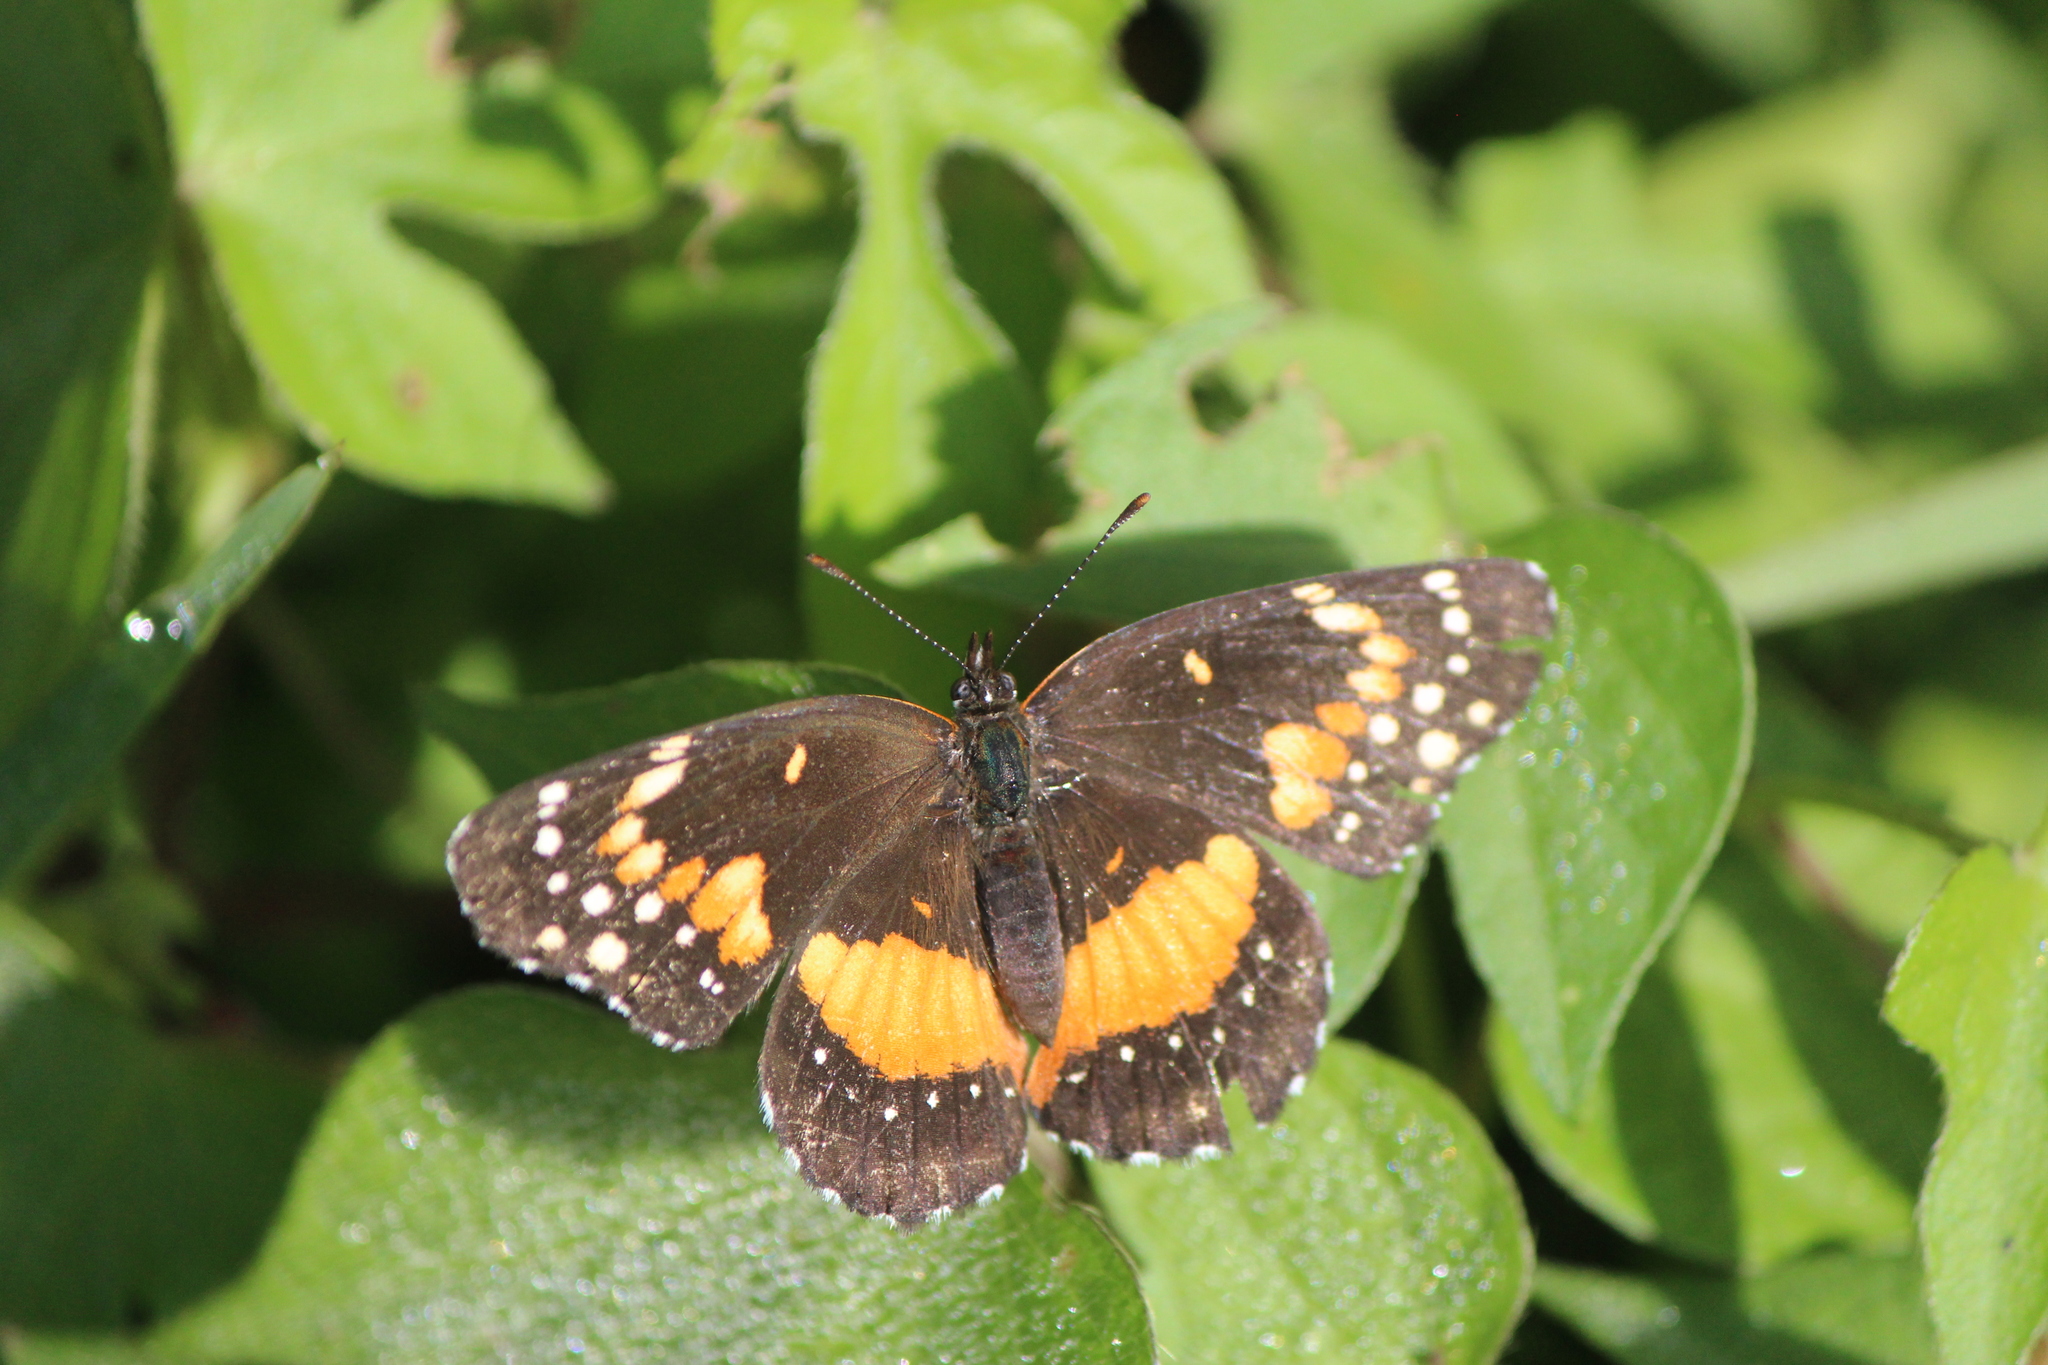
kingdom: Animalia
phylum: Arthropoda
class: Insecta
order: Lepidoptera
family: Nymphalidae
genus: Chlosyne
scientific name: Chlosyne lacinia
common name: Bordered patch
